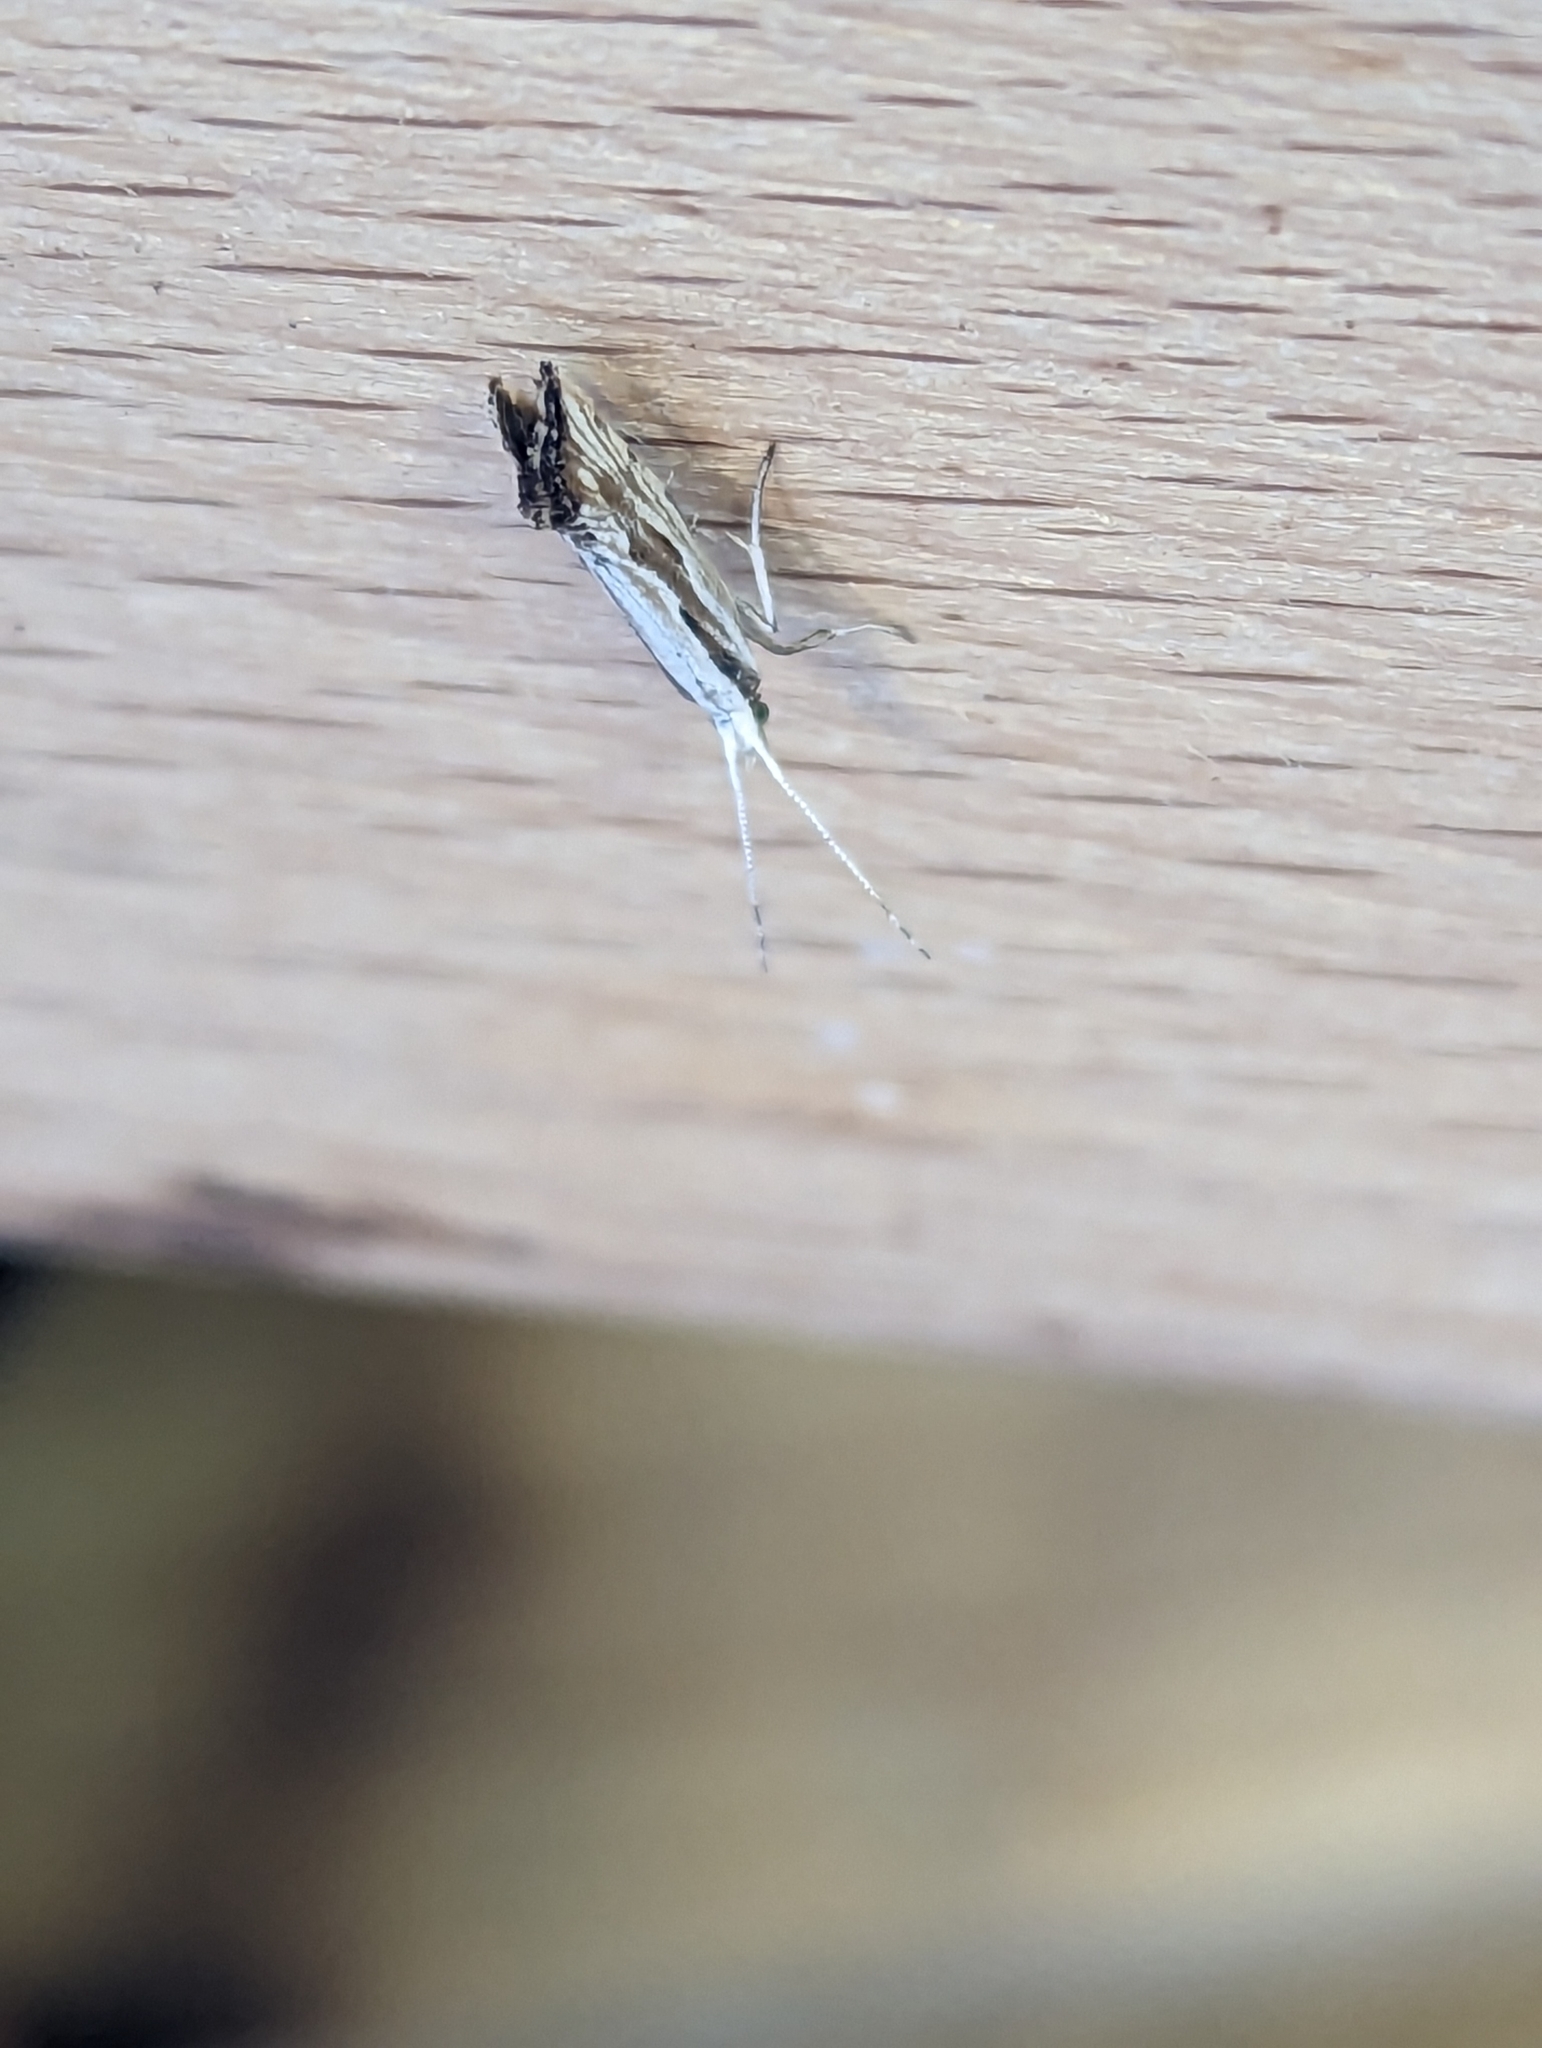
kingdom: Animalia
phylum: Arthropoda
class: Insecta
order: Lepidoptera
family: Plutellidae
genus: Plutella
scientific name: Plutella xylostella
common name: Diamond-back moth
